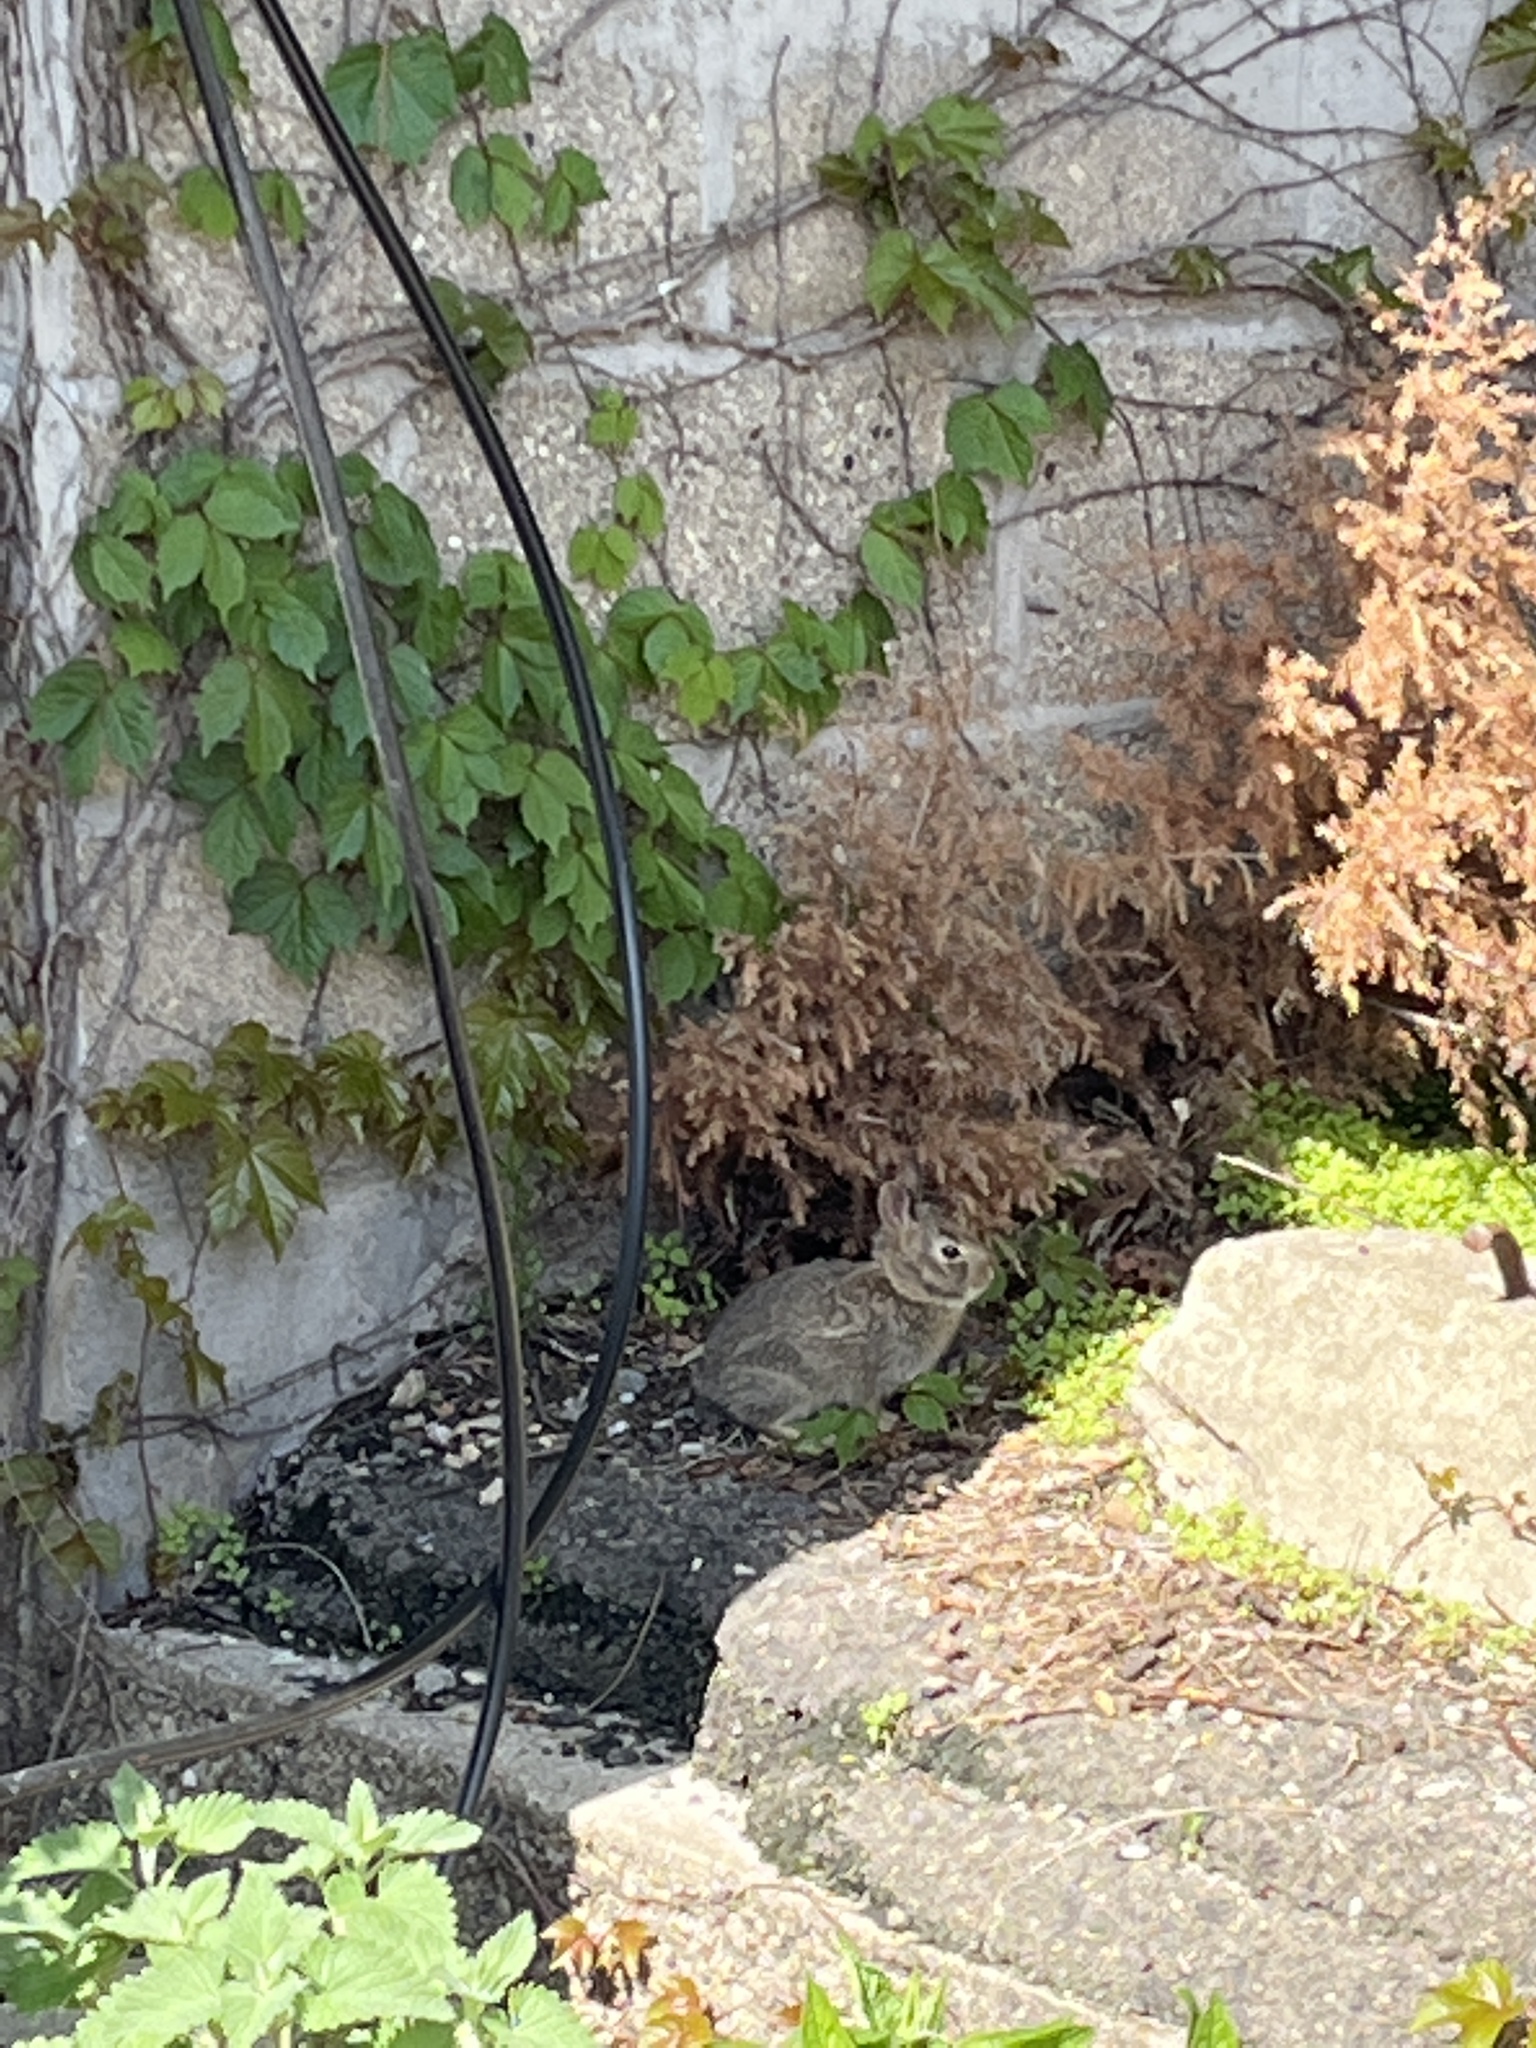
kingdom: Animalia
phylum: Chordata
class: Mammalia
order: Lagomorpha
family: Leporidae
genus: Sylvilagus
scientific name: Sylvilagus floridanus
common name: Eastern cottontail
